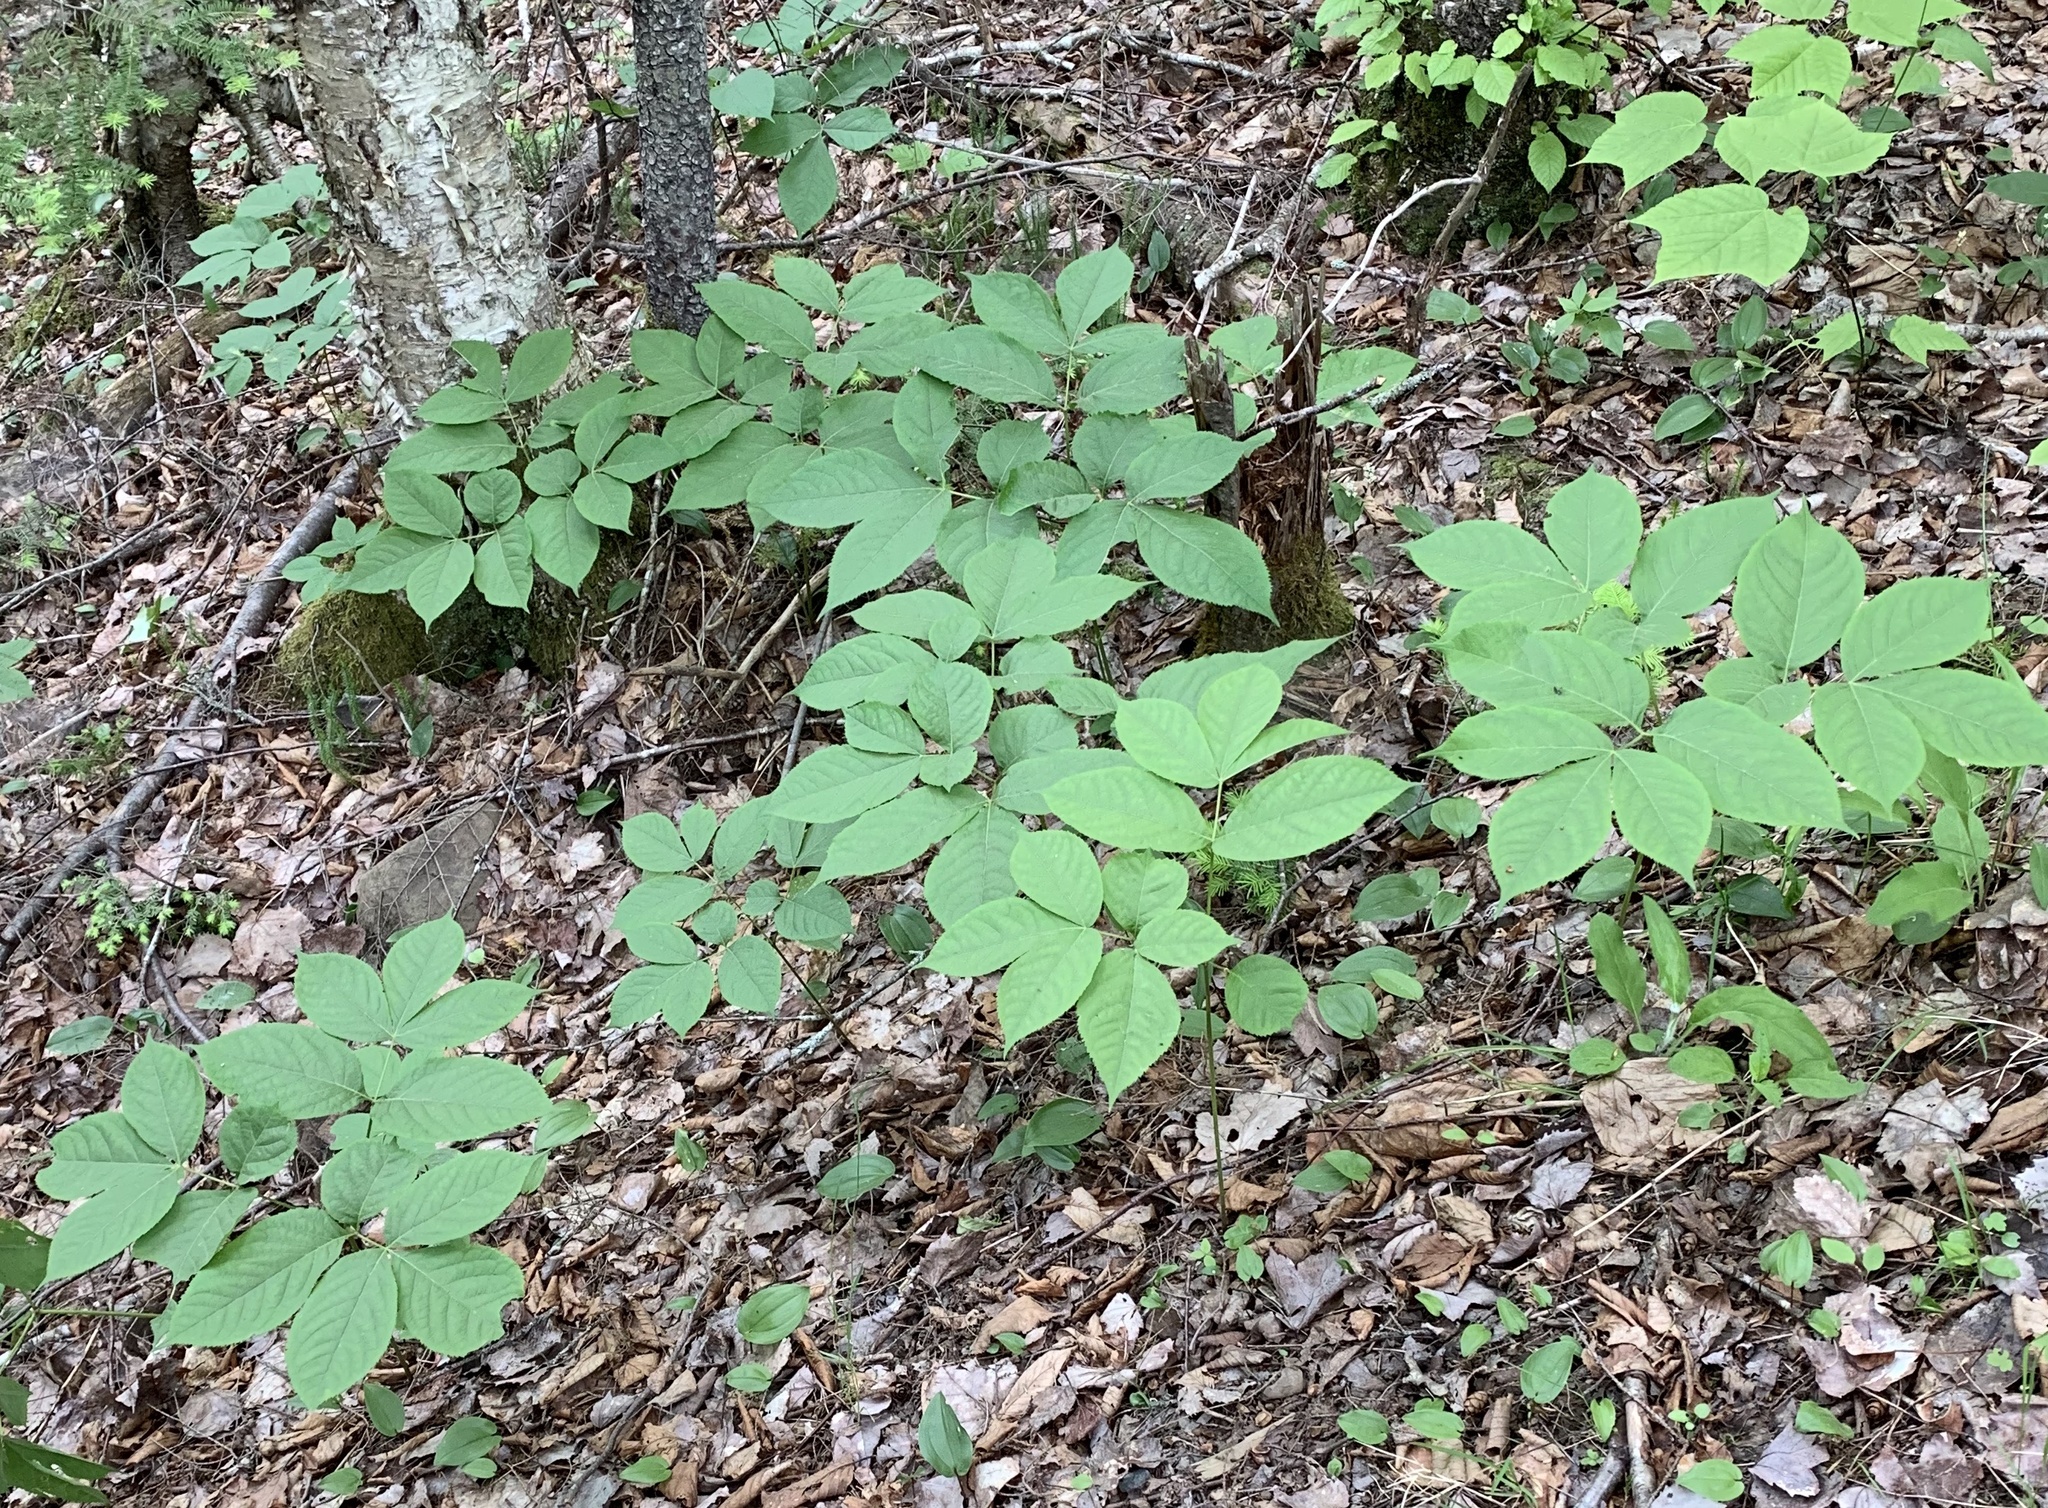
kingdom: Plantae
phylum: Tracheophyta
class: Magnoliopsida
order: Apiales
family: Araliaceae
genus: Aralia
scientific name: Aralia nudicaulis
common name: Wild sarsaparilla
